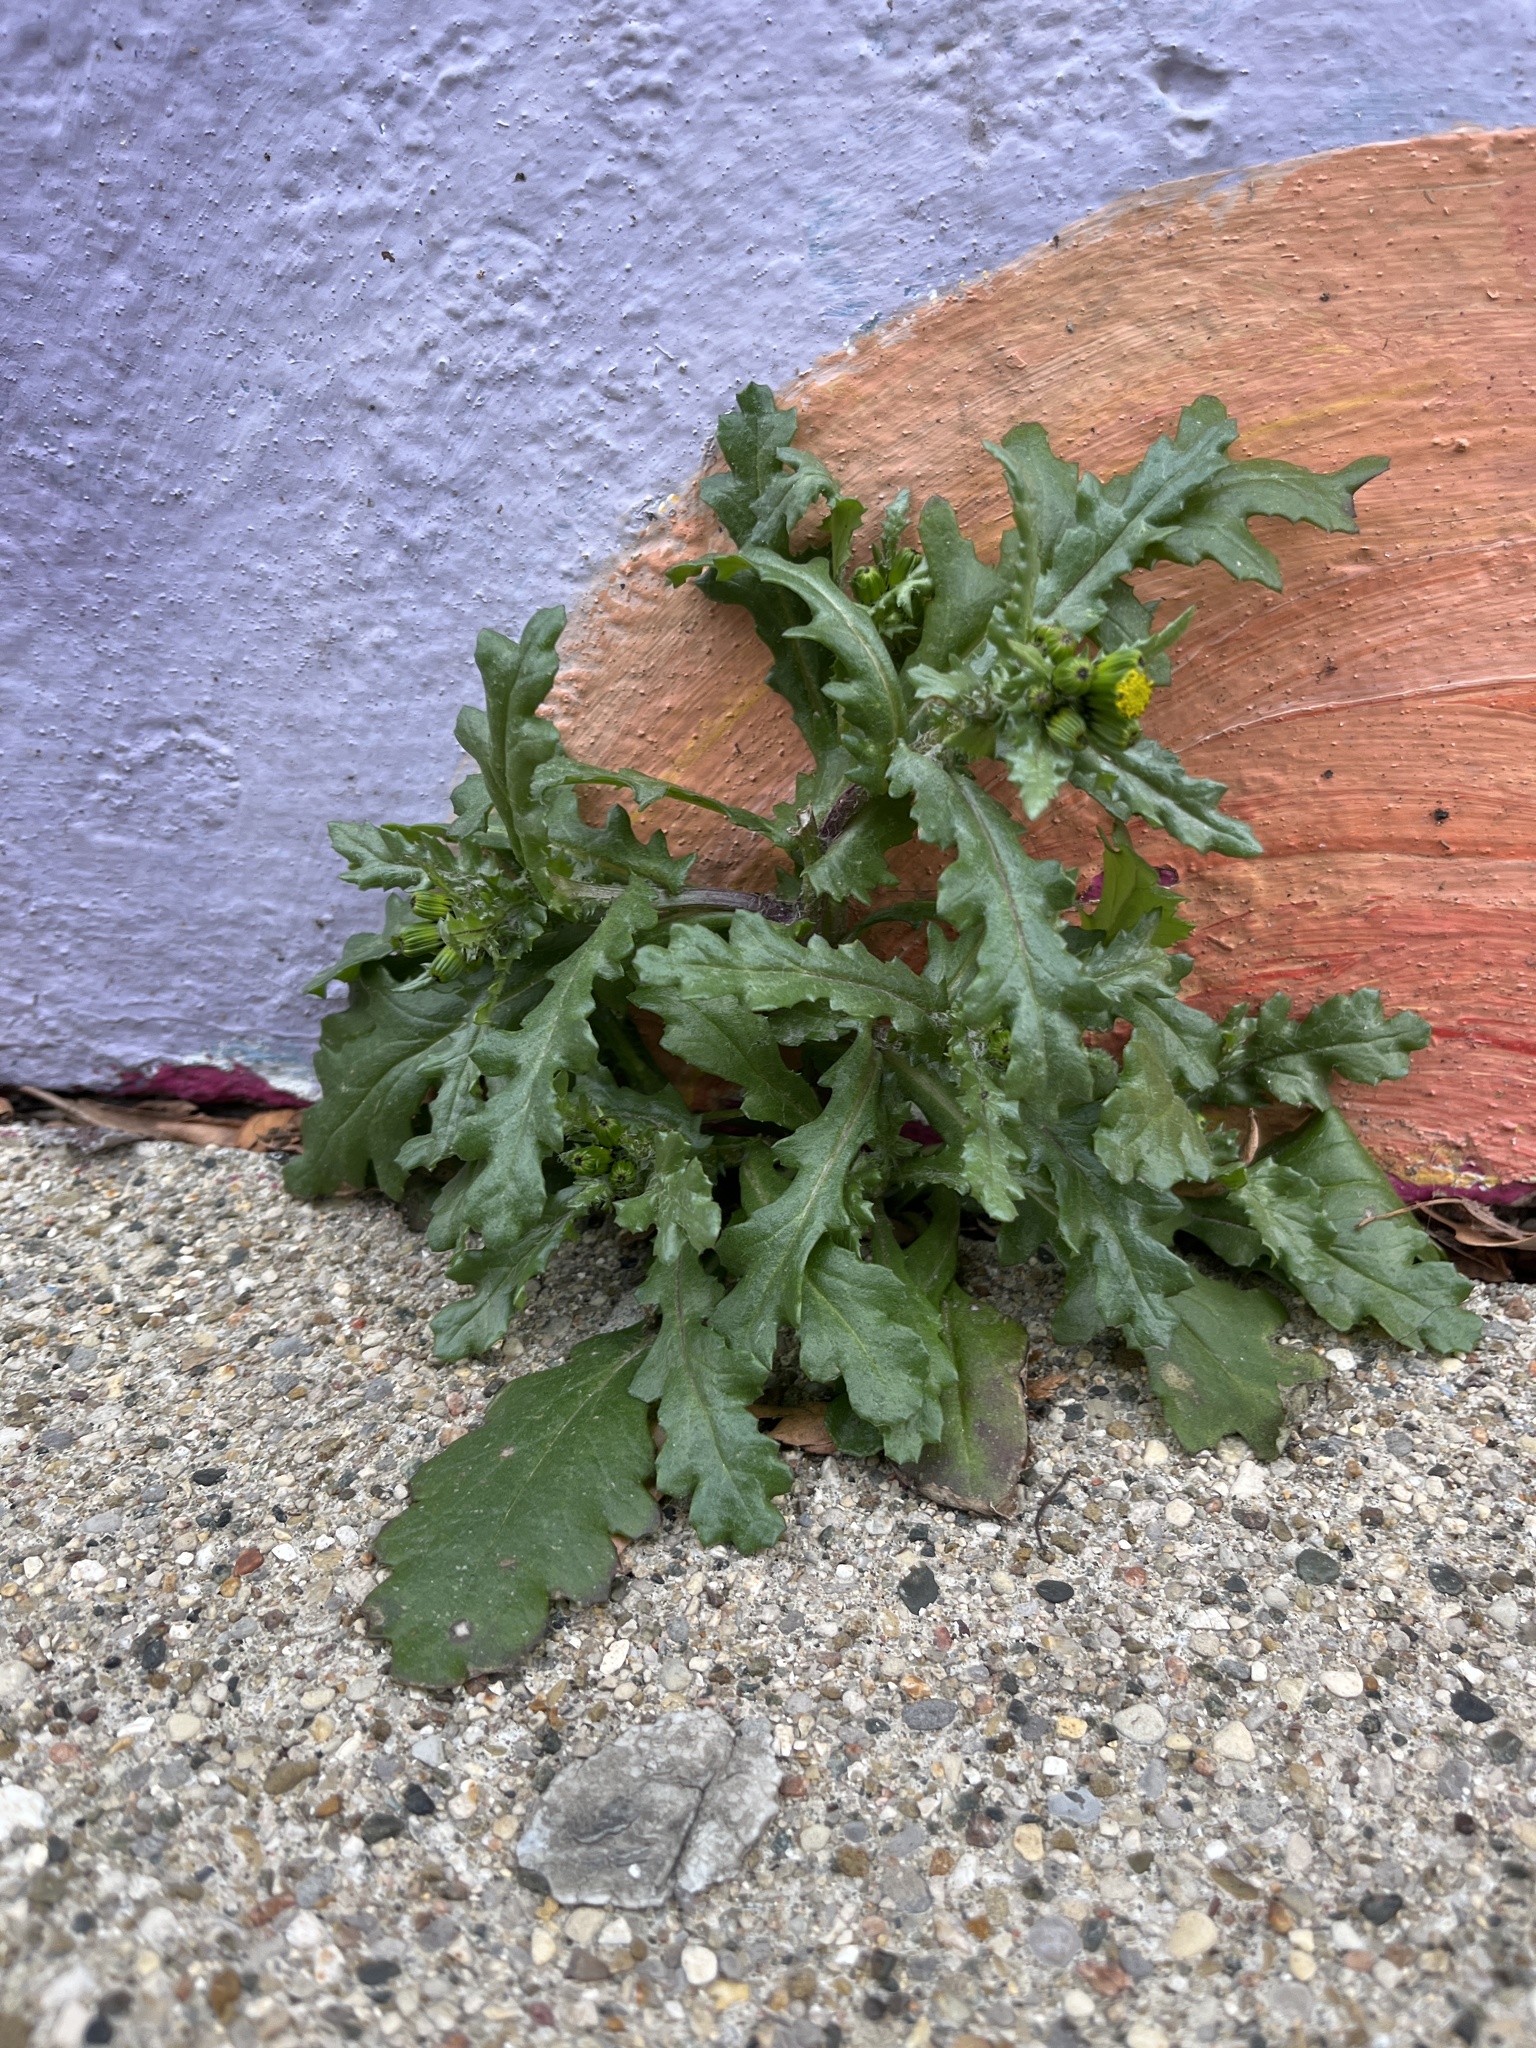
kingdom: Plantae
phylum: Tracheophyta
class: Magnoliopsida
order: Asterales
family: Asteraceae
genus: Senecio
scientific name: Senecio vulgaris
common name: Old-man-in-the-spring
